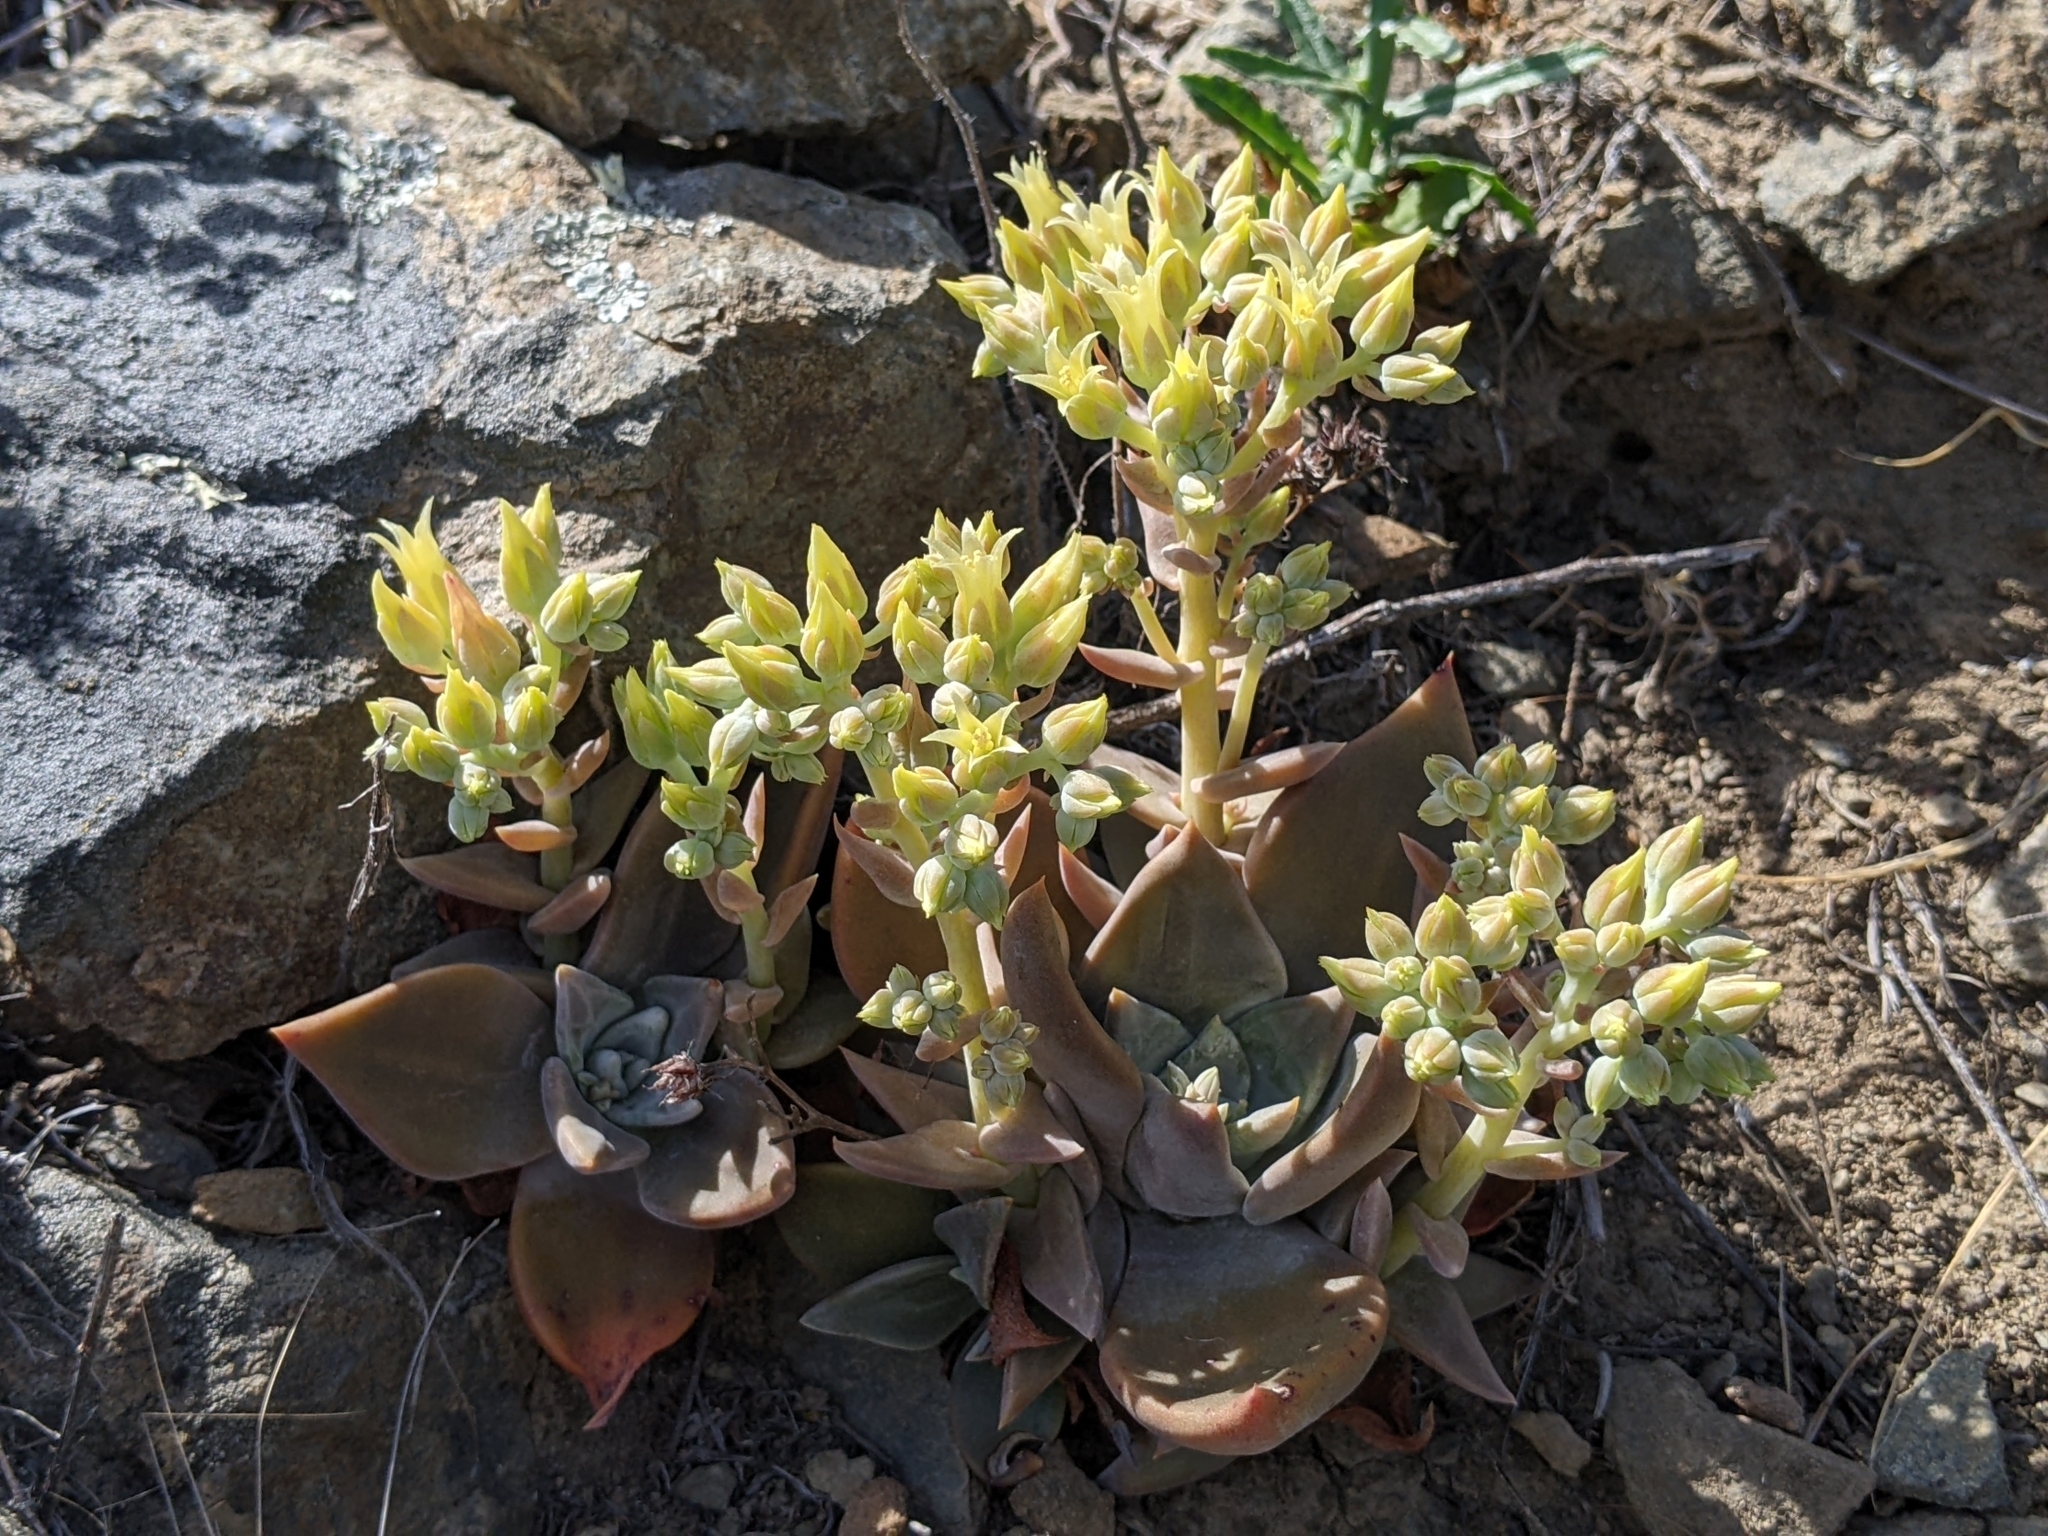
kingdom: Plantae
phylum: Tracheophyta
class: Magnoliopsida
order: Saxifragales
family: Crassulaceae
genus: Dudleya
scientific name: Dudleya cymosa
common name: Canyon dudleya
